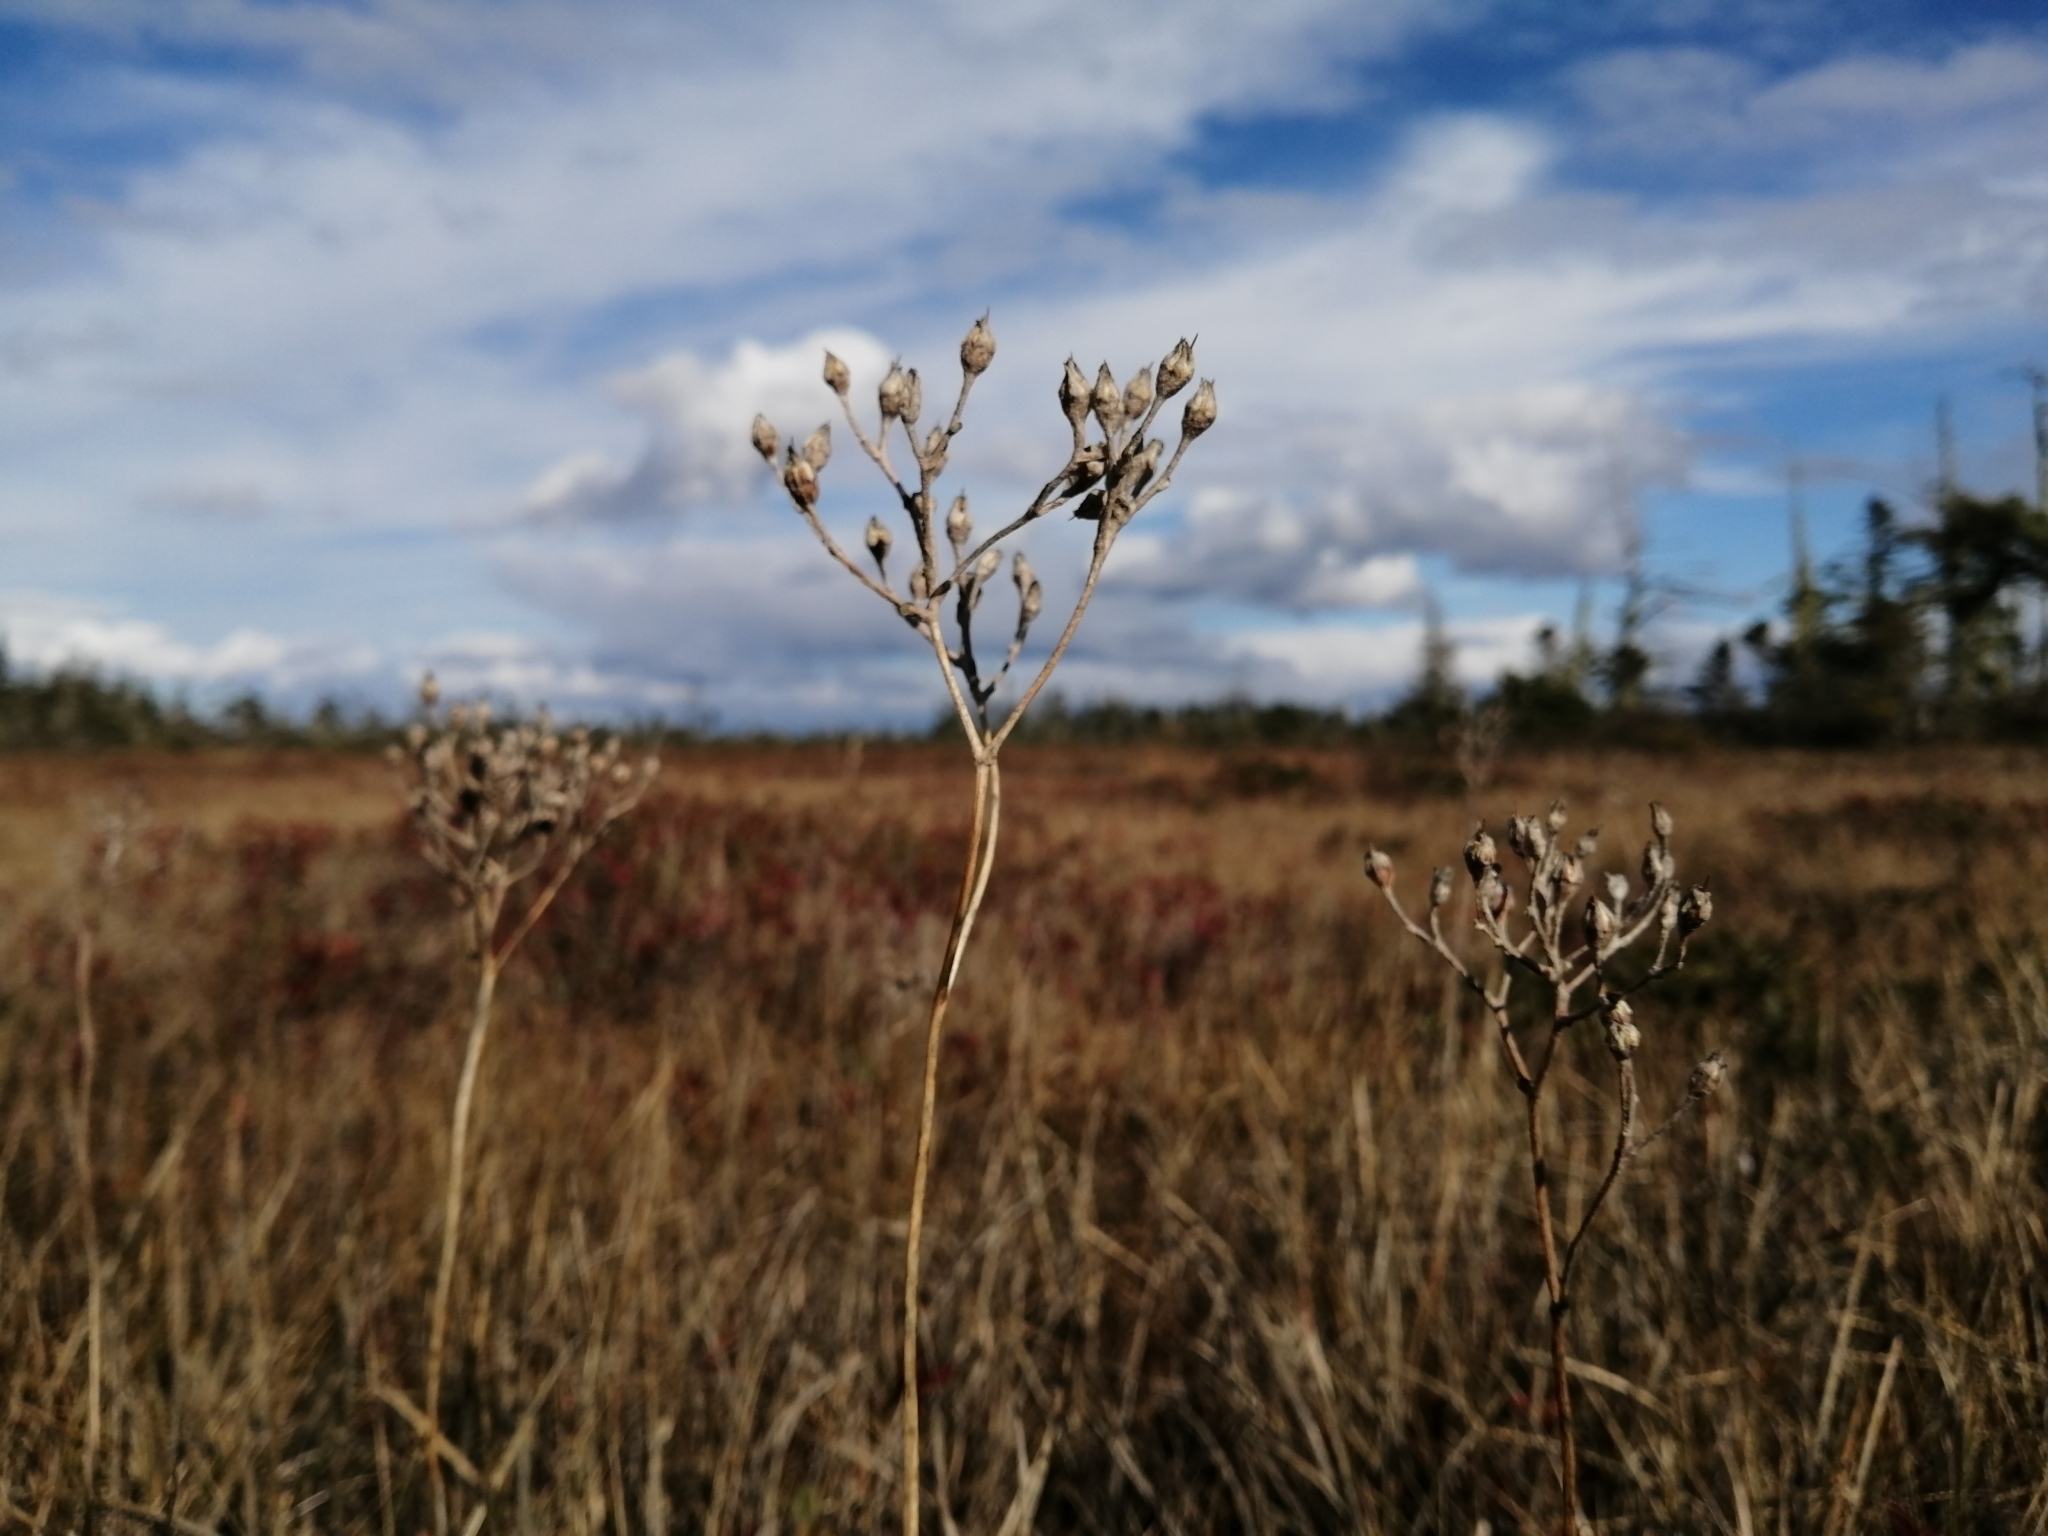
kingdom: Plantae
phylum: Tracheophyta
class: Liliopsida
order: Dioscoreales
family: Nartheciaceae
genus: Lophiola
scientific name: Lophiola aurea
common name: Golden-crest
